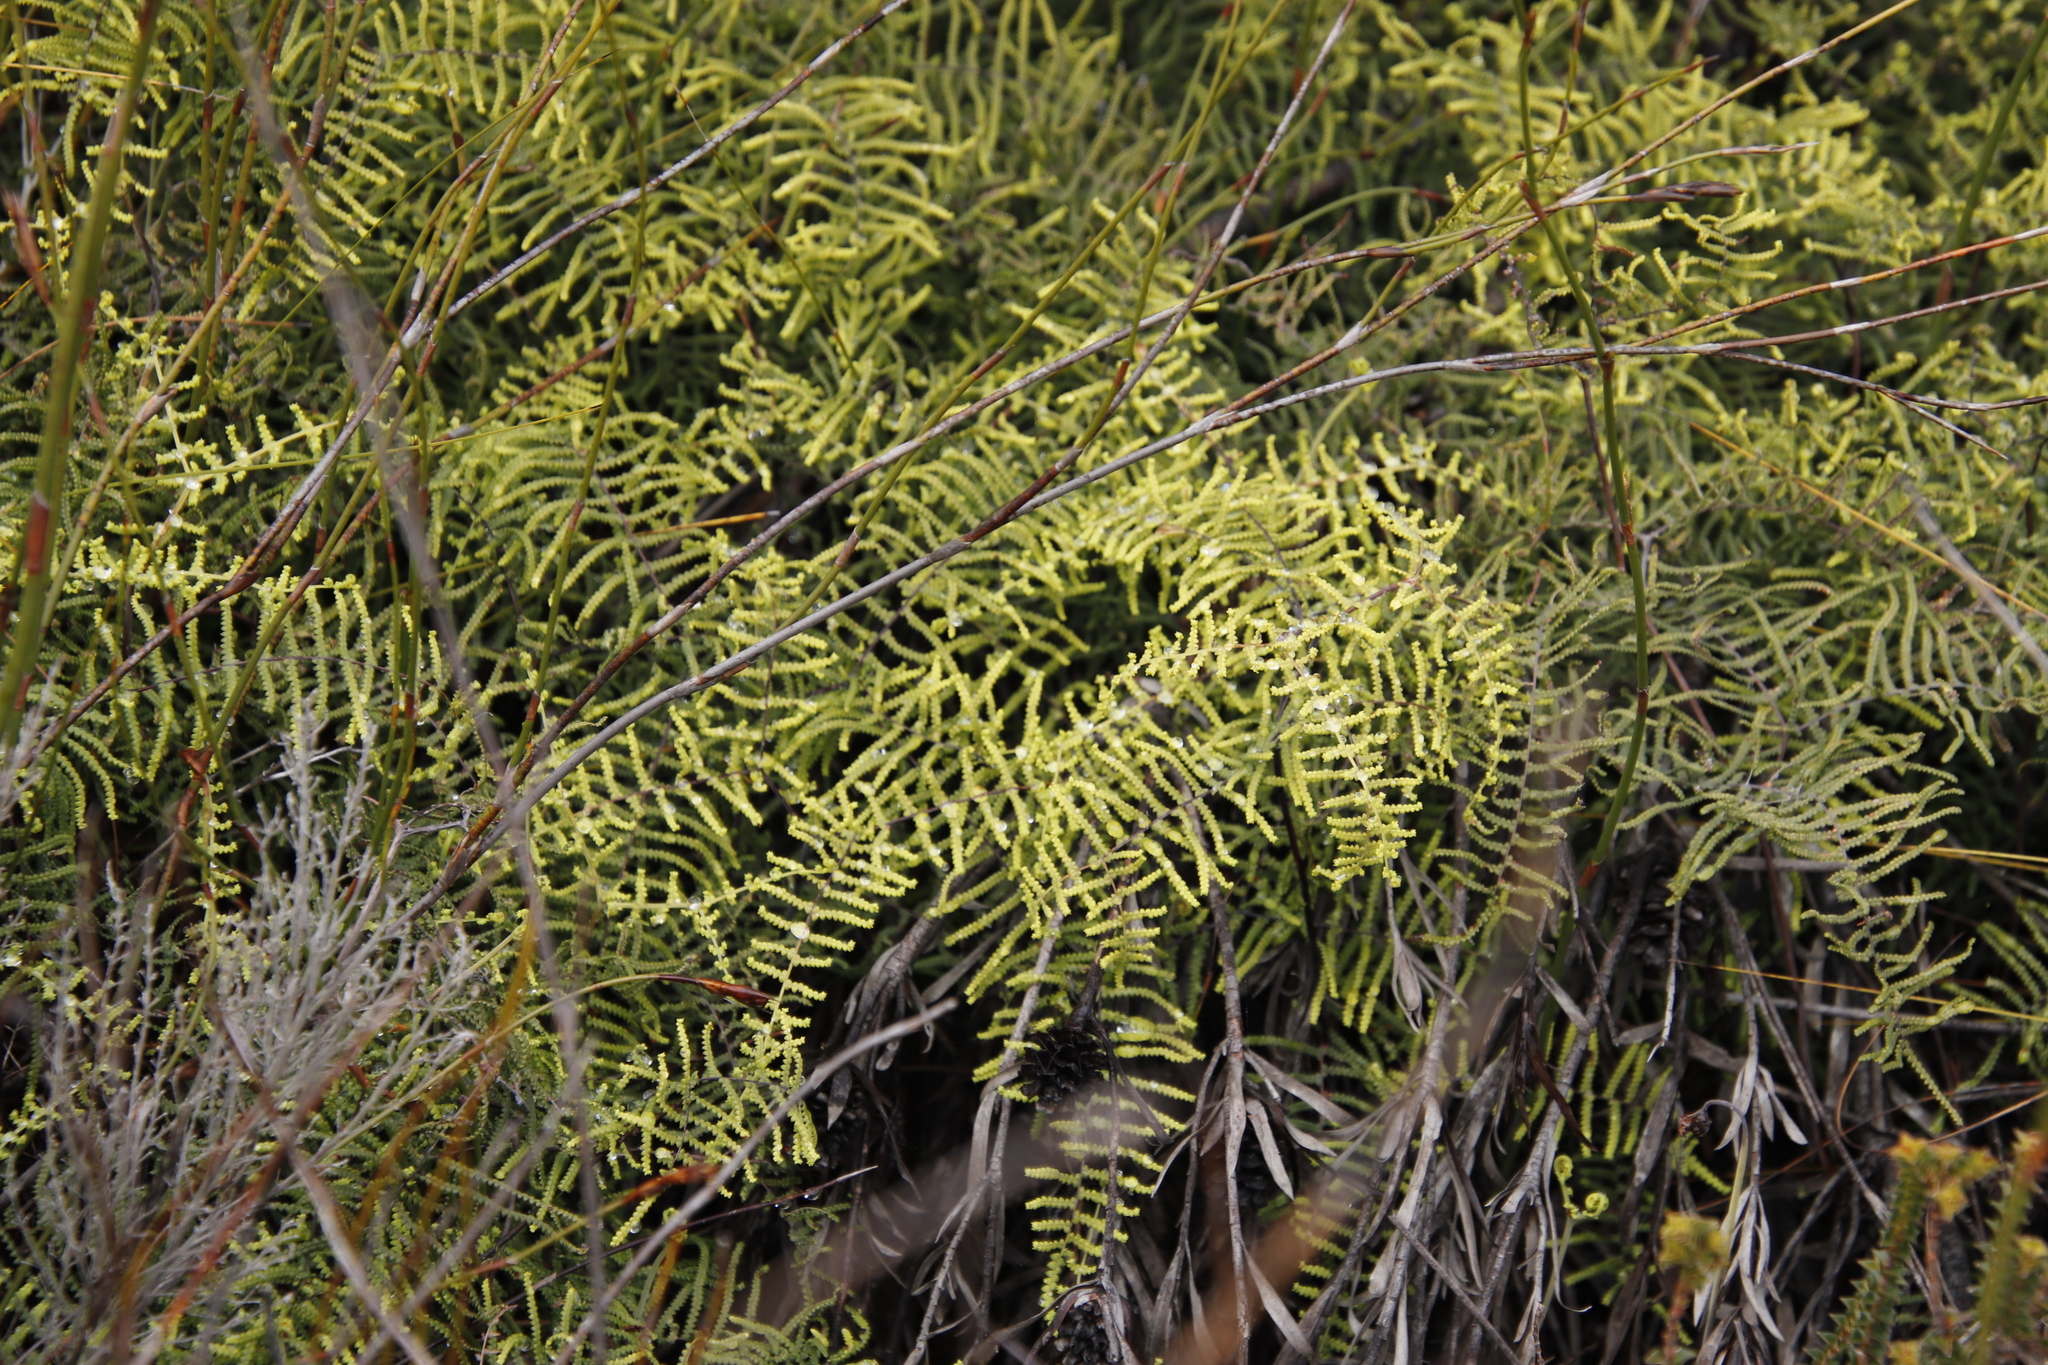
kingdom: Plantae
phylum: Tracheophyta
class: Polypodiopsida
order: Gleicheniales
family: Gleicheniaceae
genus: Gleichenia
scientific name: Gleichenia polypodioides
